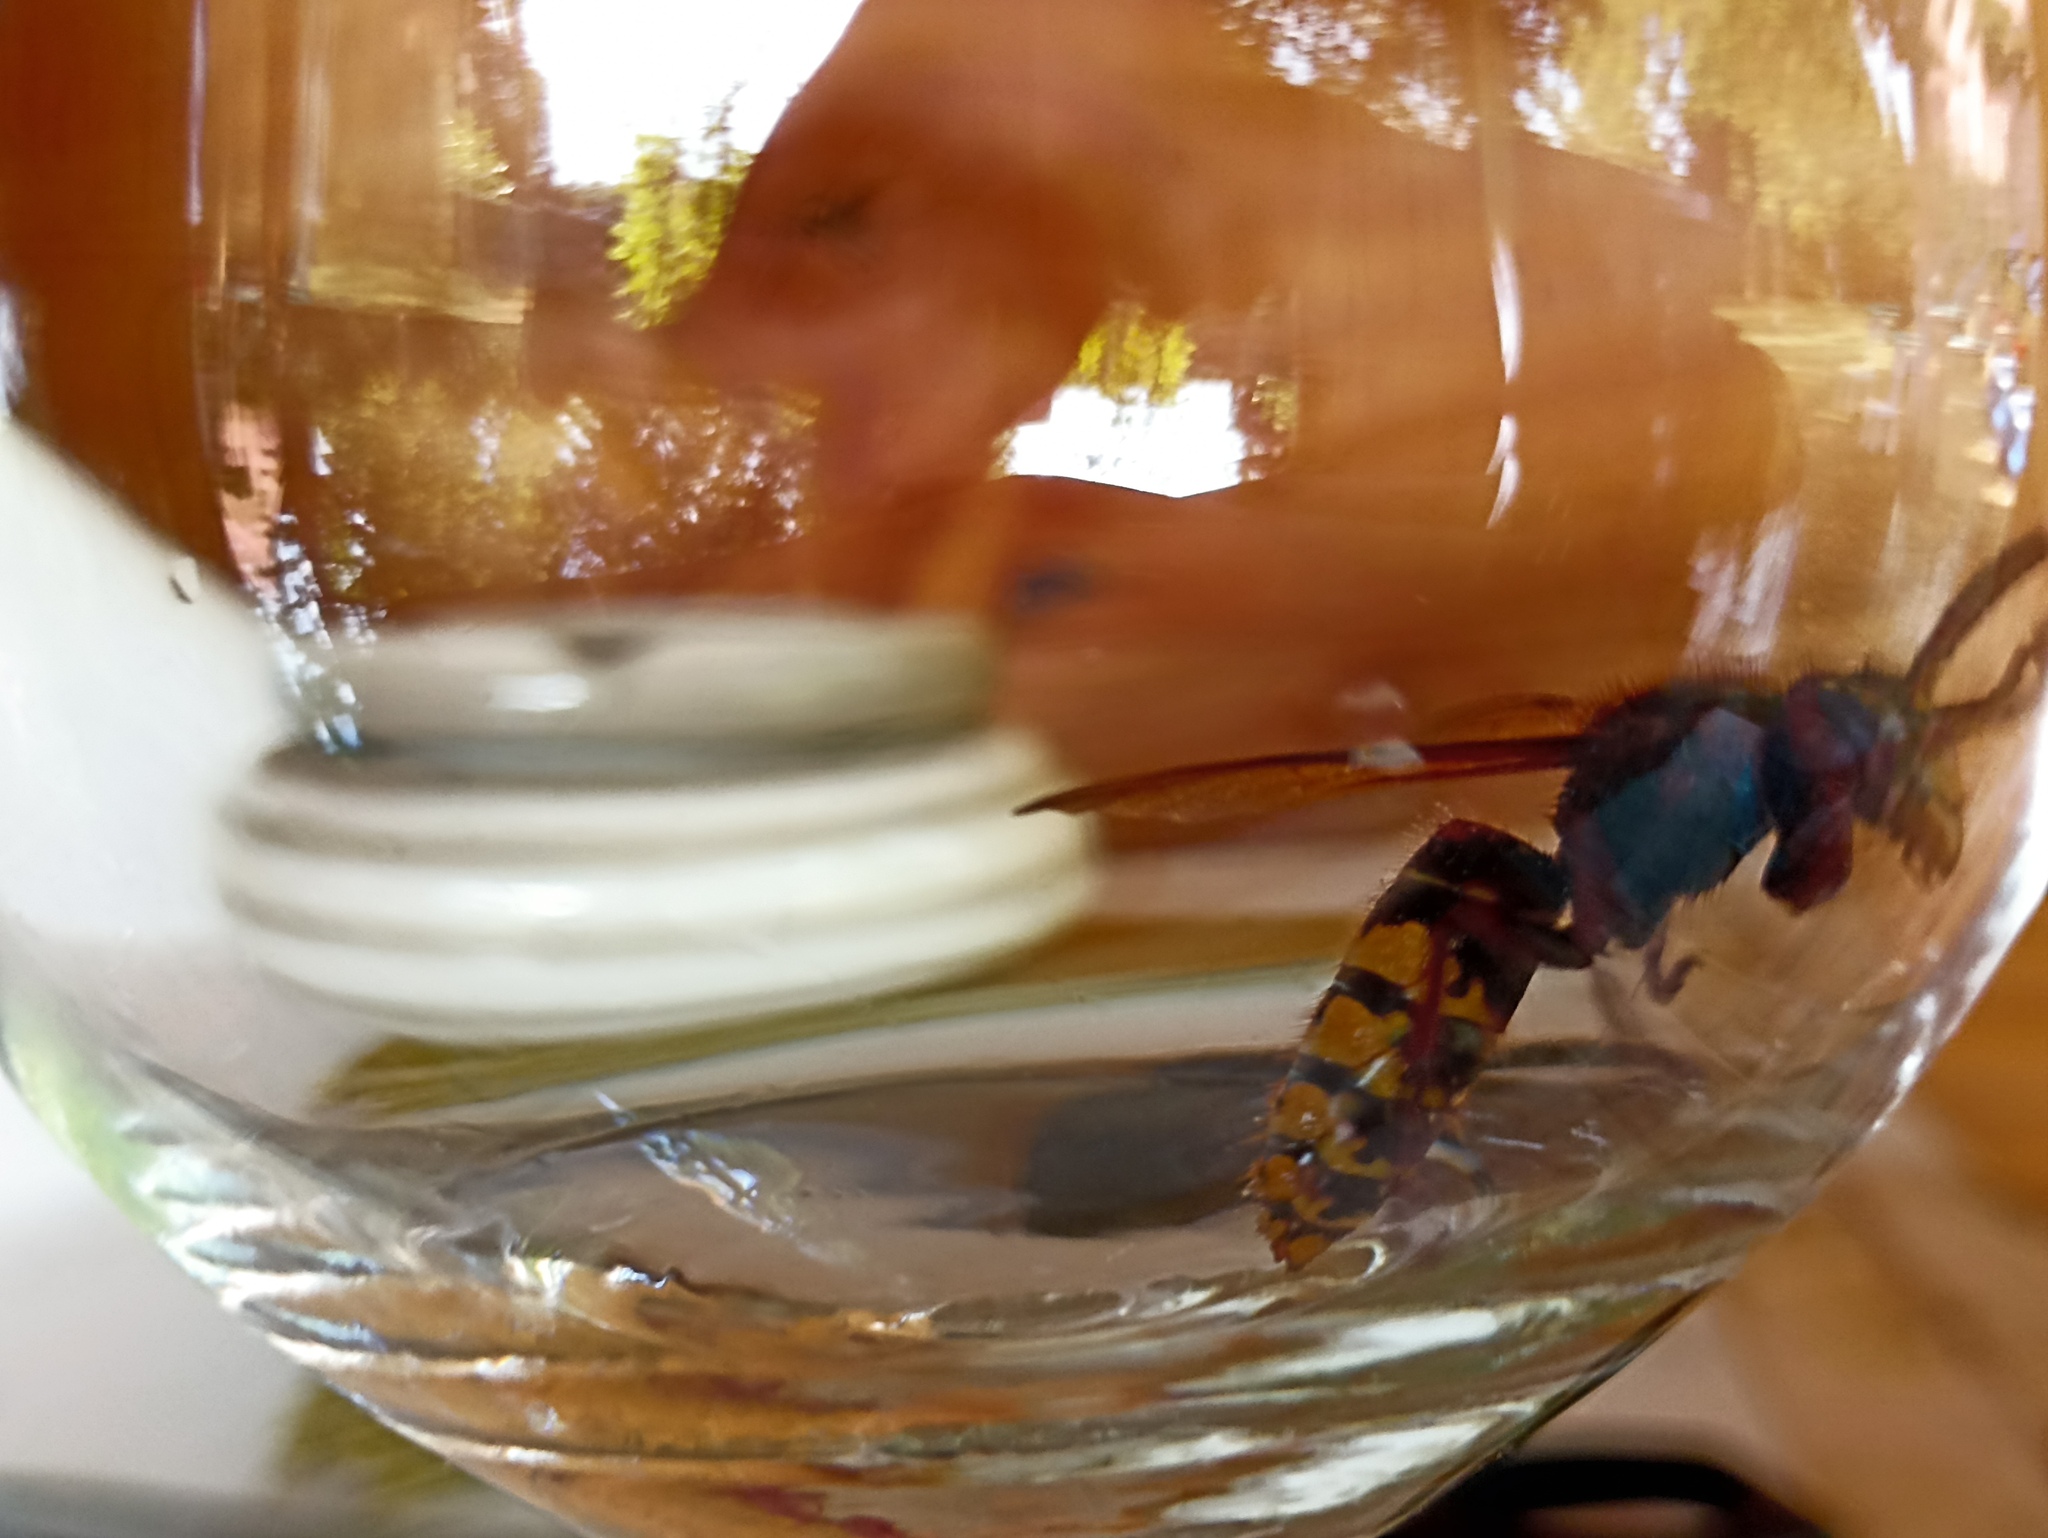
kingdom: Animalia
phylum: Arthropoda
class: Insecta
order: Hymenoptera
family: Vespidae
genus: Vespa
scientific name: Vespa crabro
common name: Hornet
